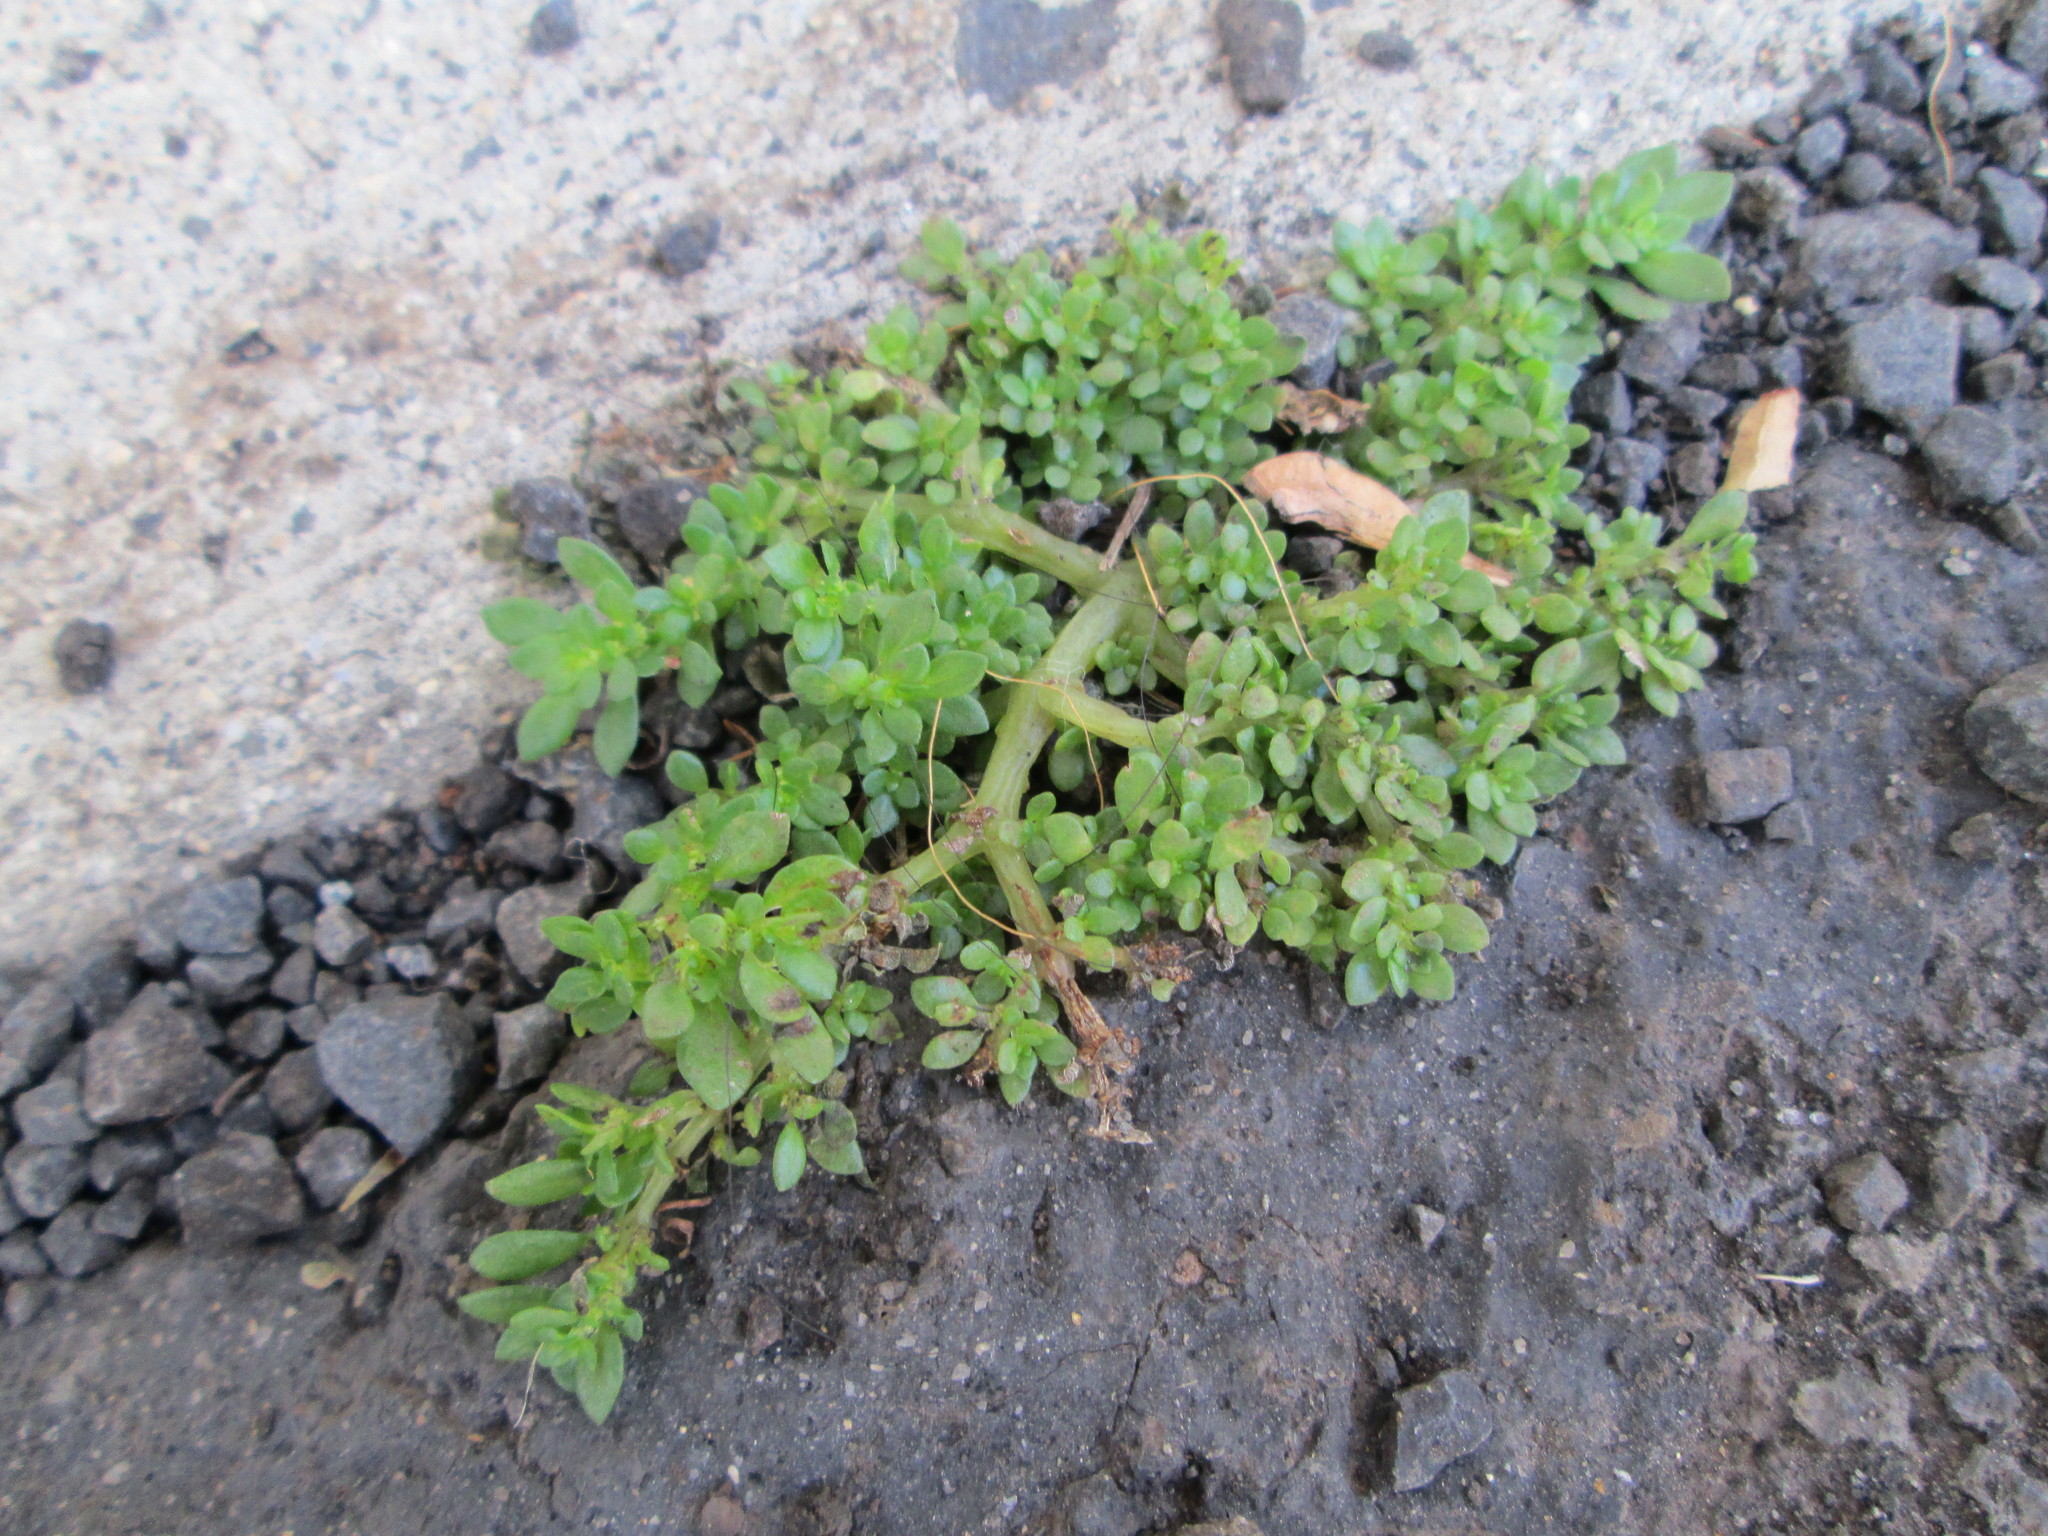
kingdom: Plantae
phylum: Tracheophyta
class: Magnoliopsida
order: Rosales
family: Urticaceae
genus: Pilea
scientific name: Pilea microphylla
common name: Artillery-plant
